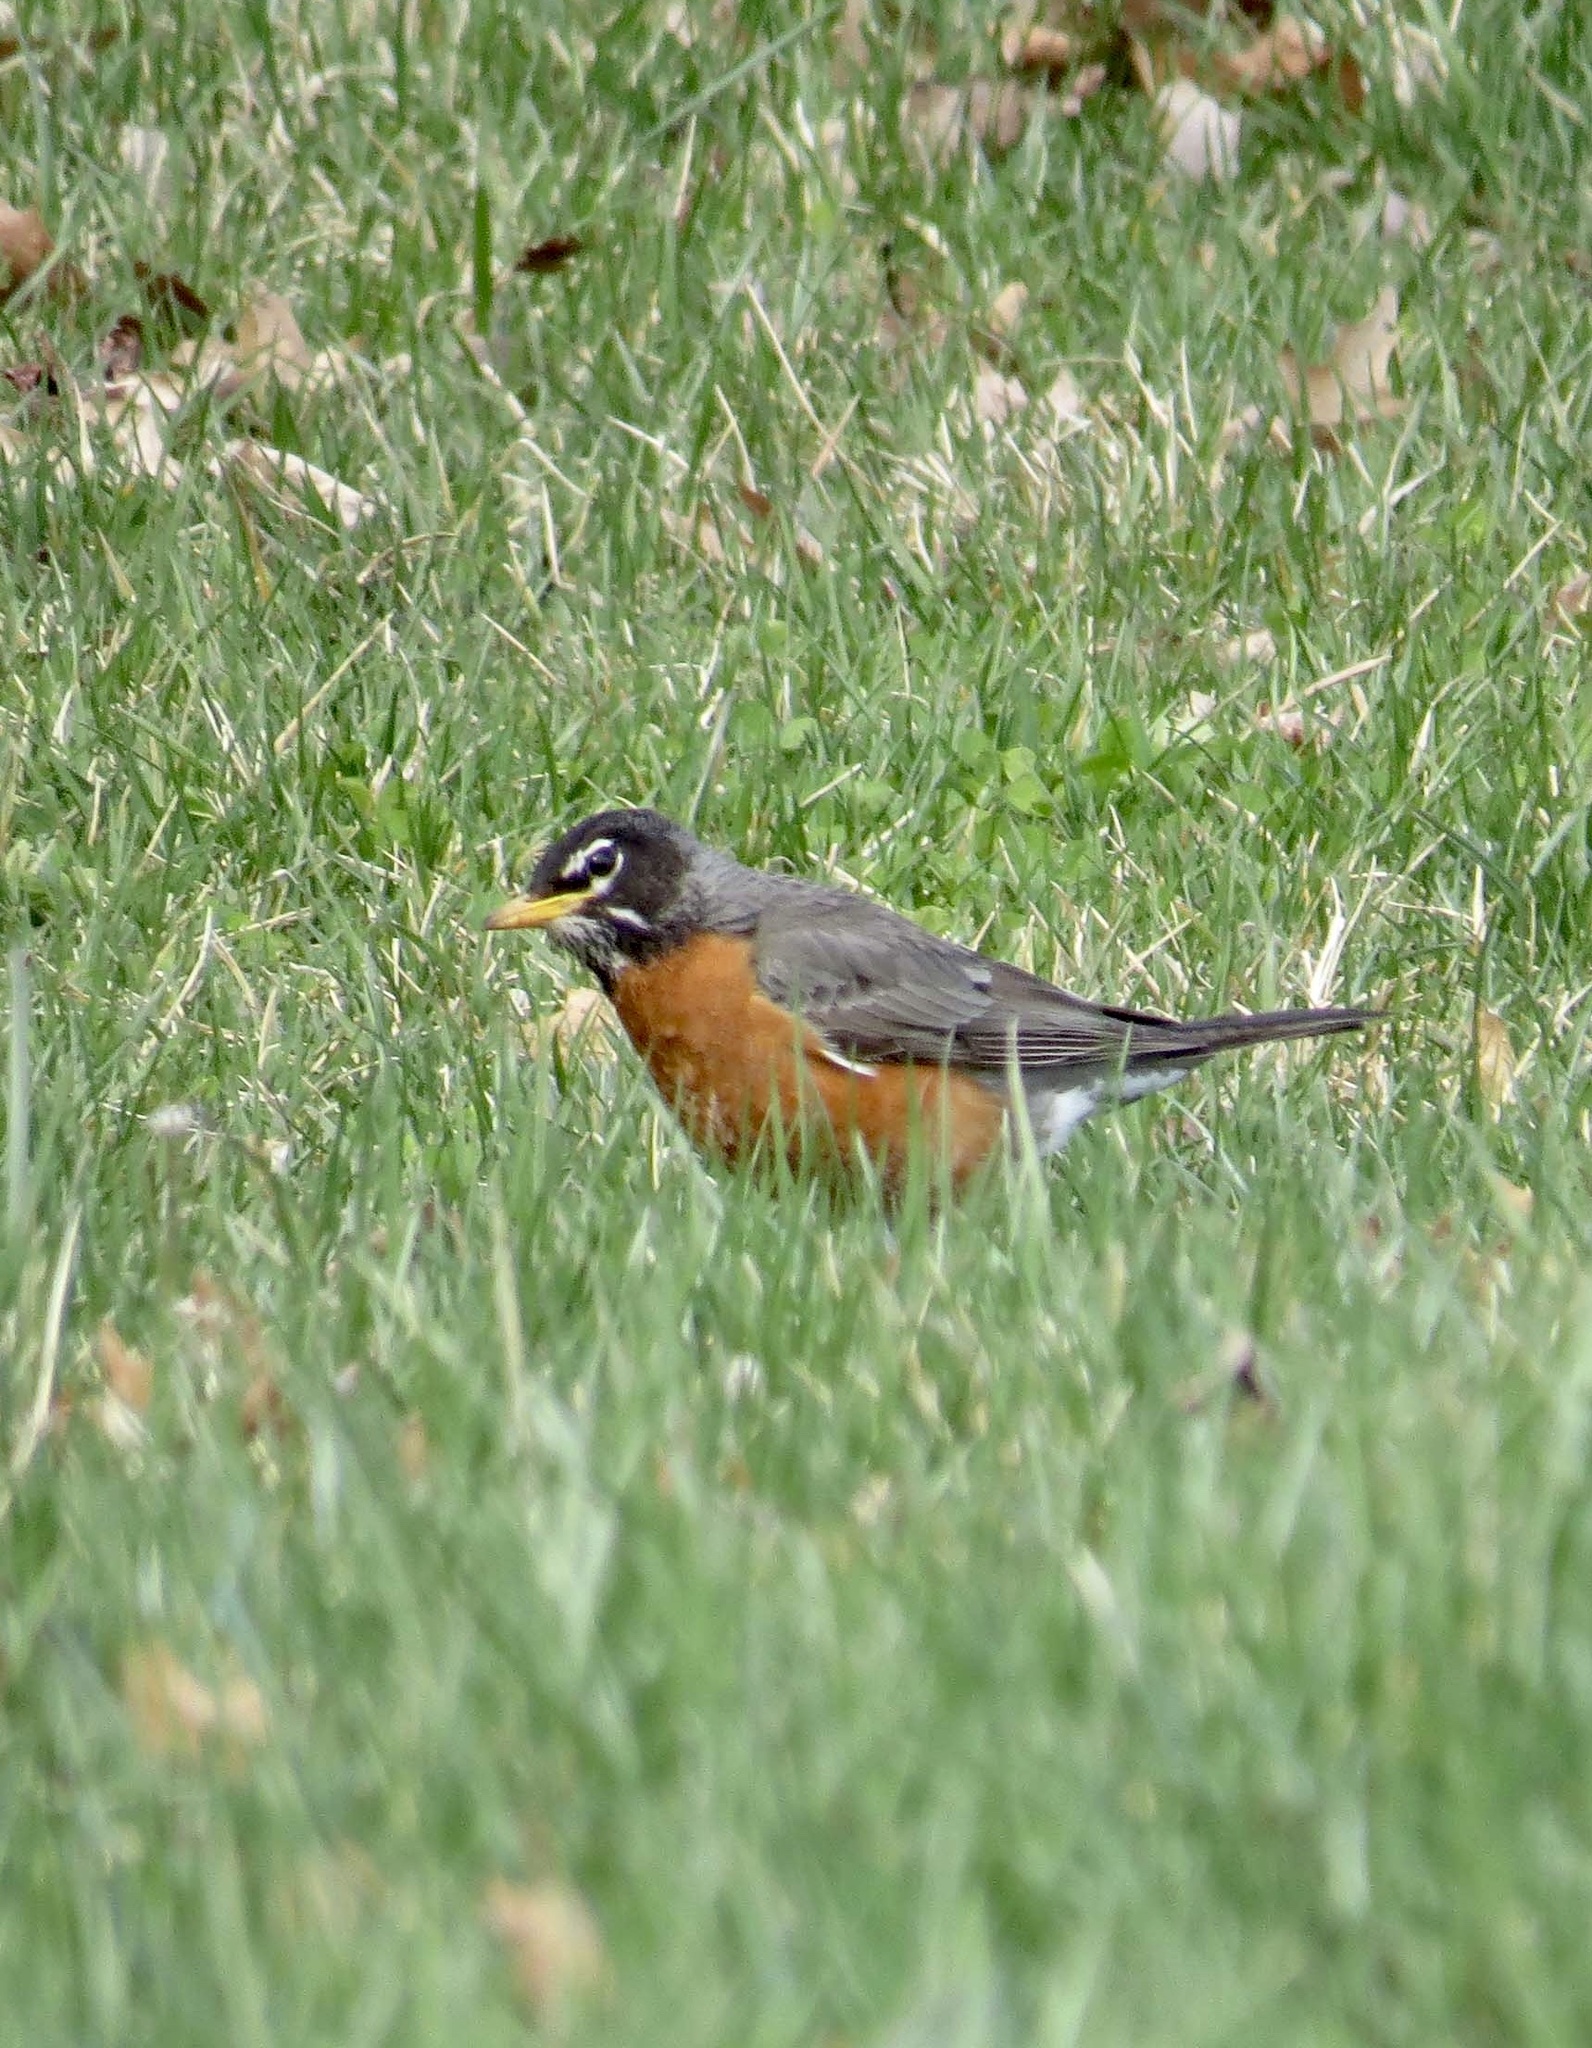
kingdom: Animalia
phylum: Chordata
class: Aves
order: Passeriformes
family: Turdidae
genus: Turdus
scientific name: Turdus migratorius
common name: American robin
